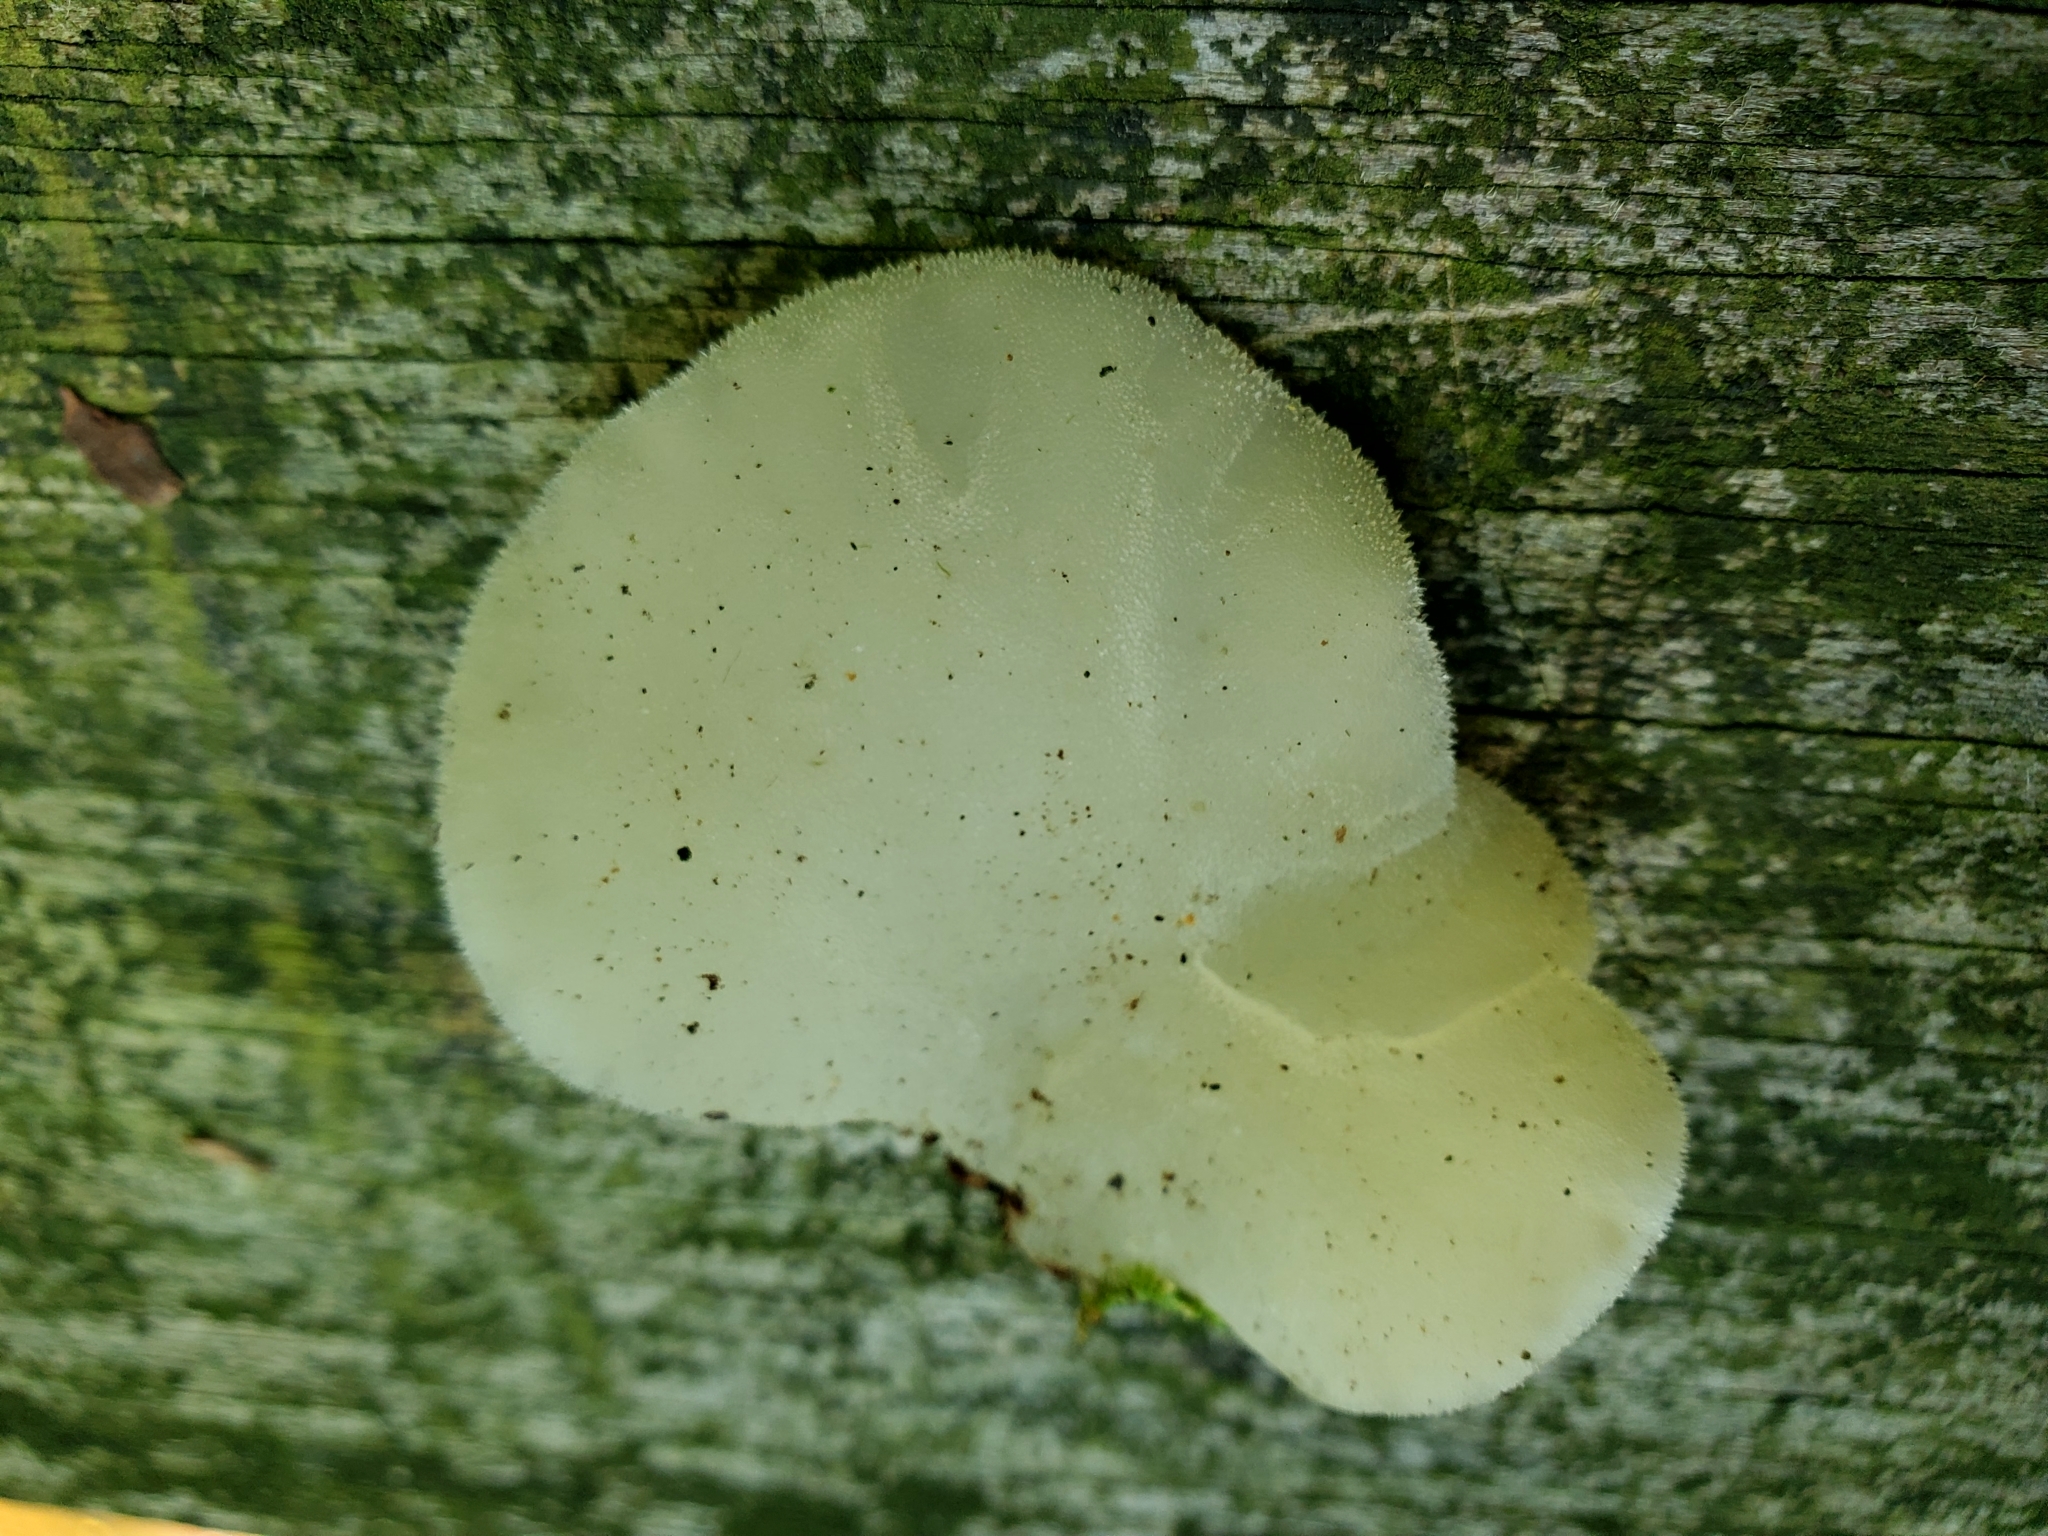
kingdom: Fungi
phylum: Basidiomycota
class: Agaricomycetes
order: Auriculariales
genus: Pseudohydnum
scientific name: Pseudohydnum gelatinosum
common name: Jelly tongue
